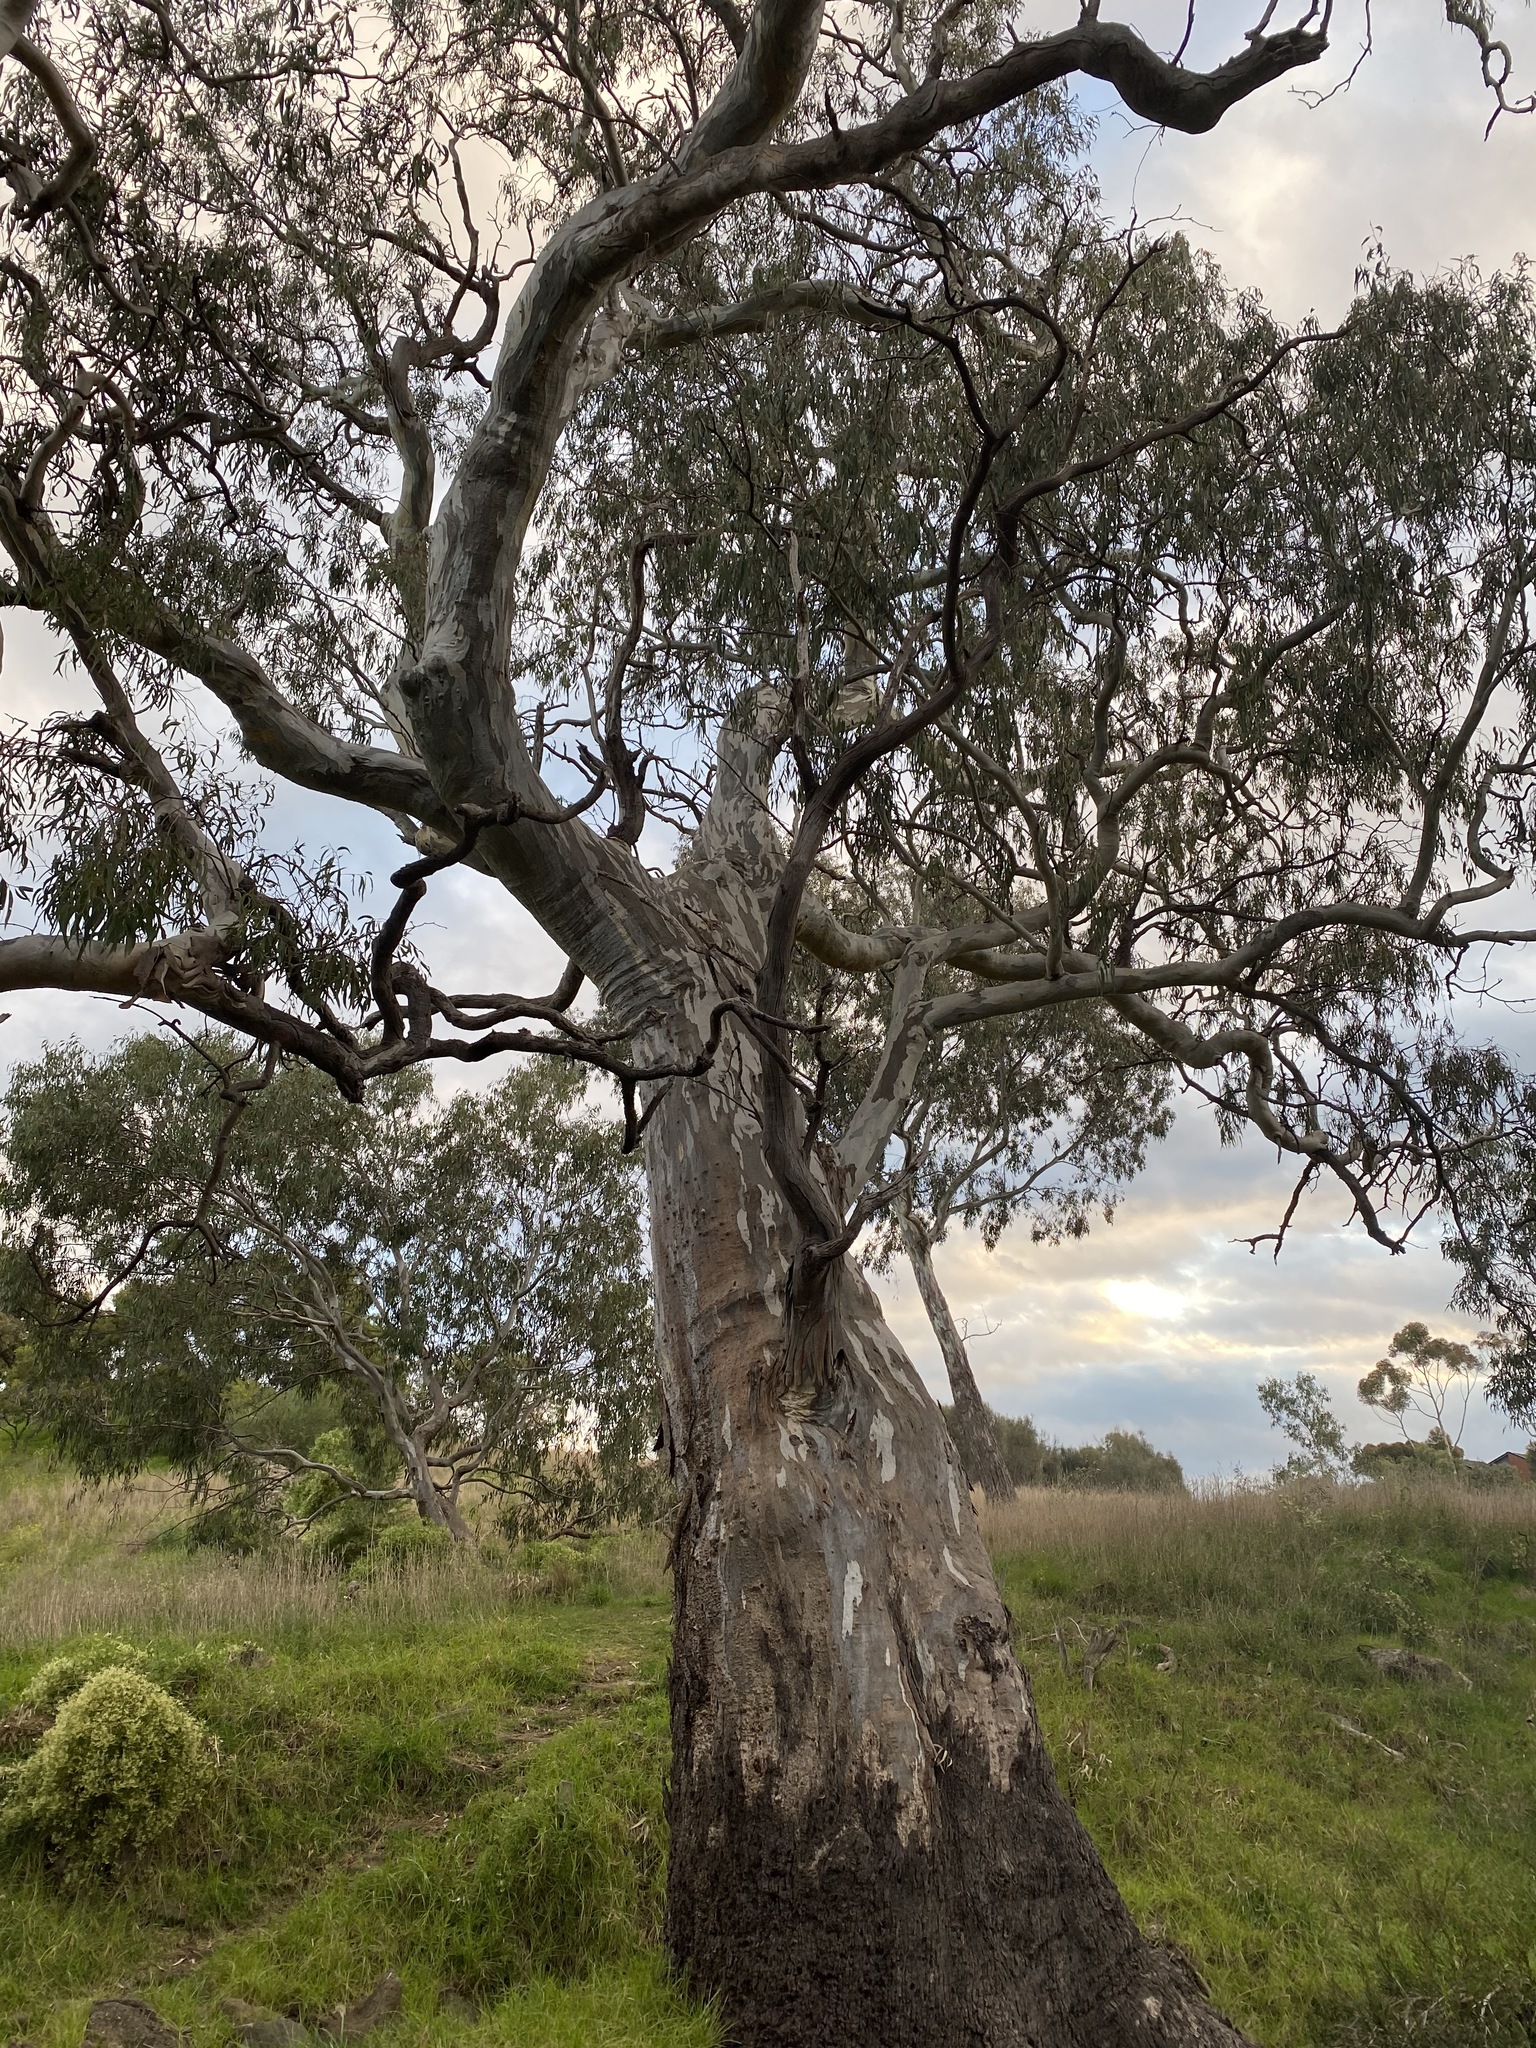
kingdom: Plantae
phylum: Tracheophyta
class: Magnoliopsida
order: Myrtales
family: Myrtaceae
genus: Eucalyptus
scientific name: Eucalyptus camaldulensis
